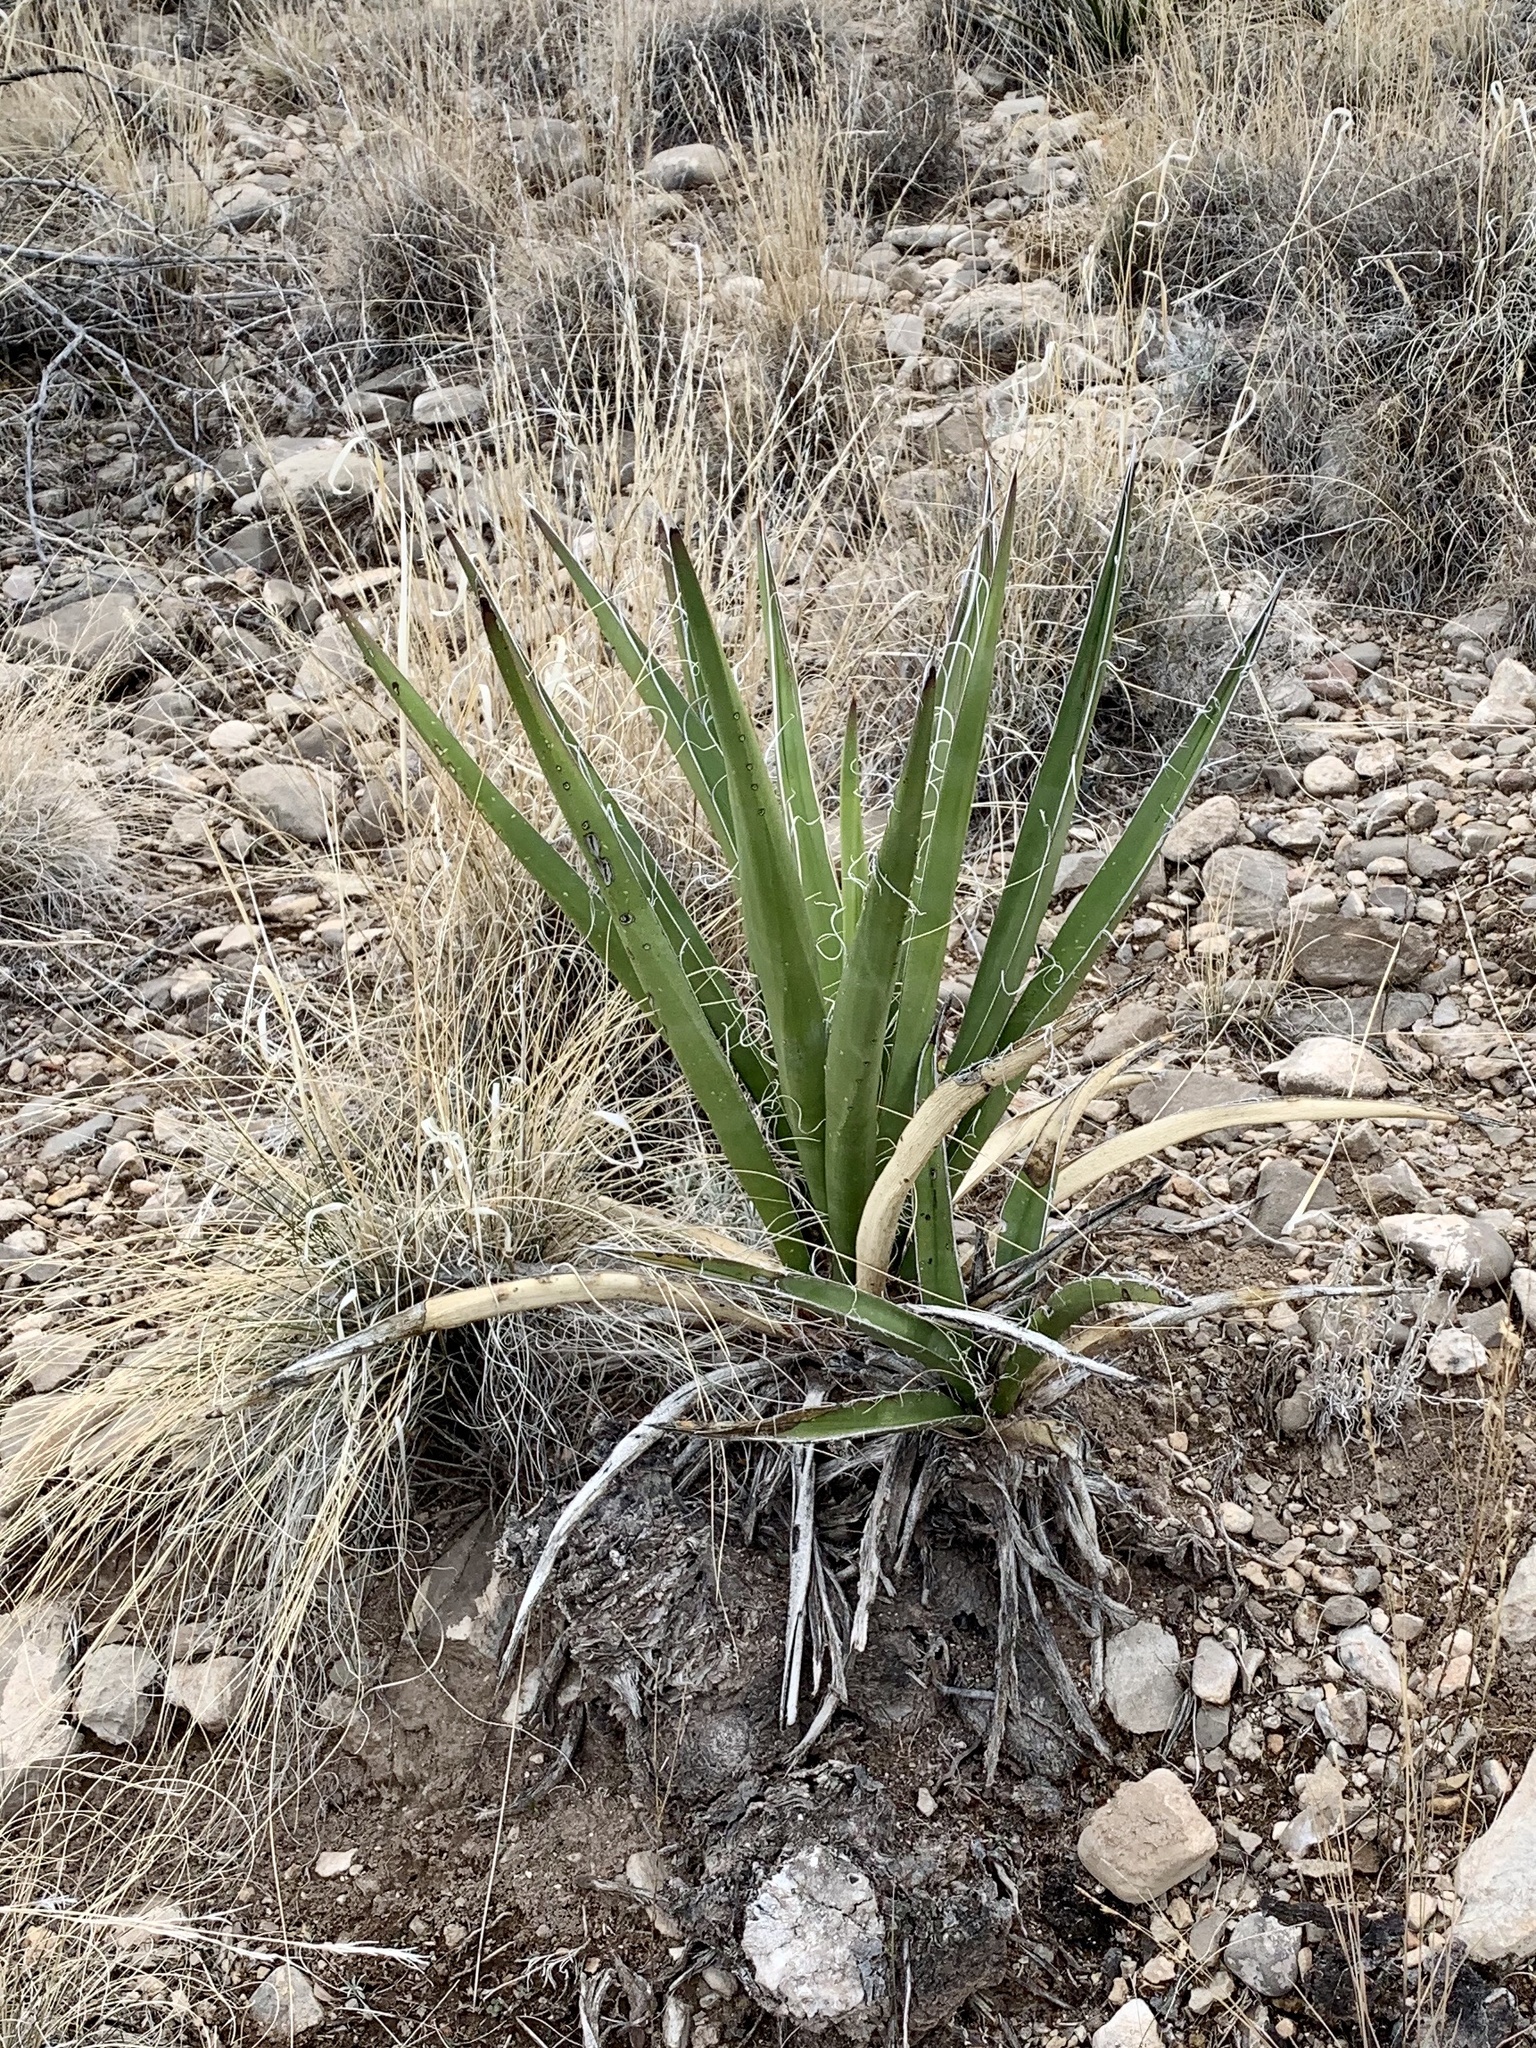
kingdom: Plantae
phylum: Tracheophyta
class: Liliopsida
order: Asparagales
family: Asparagaceae
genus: Yucca
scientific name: Yucca baccata
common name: Banana yucca
